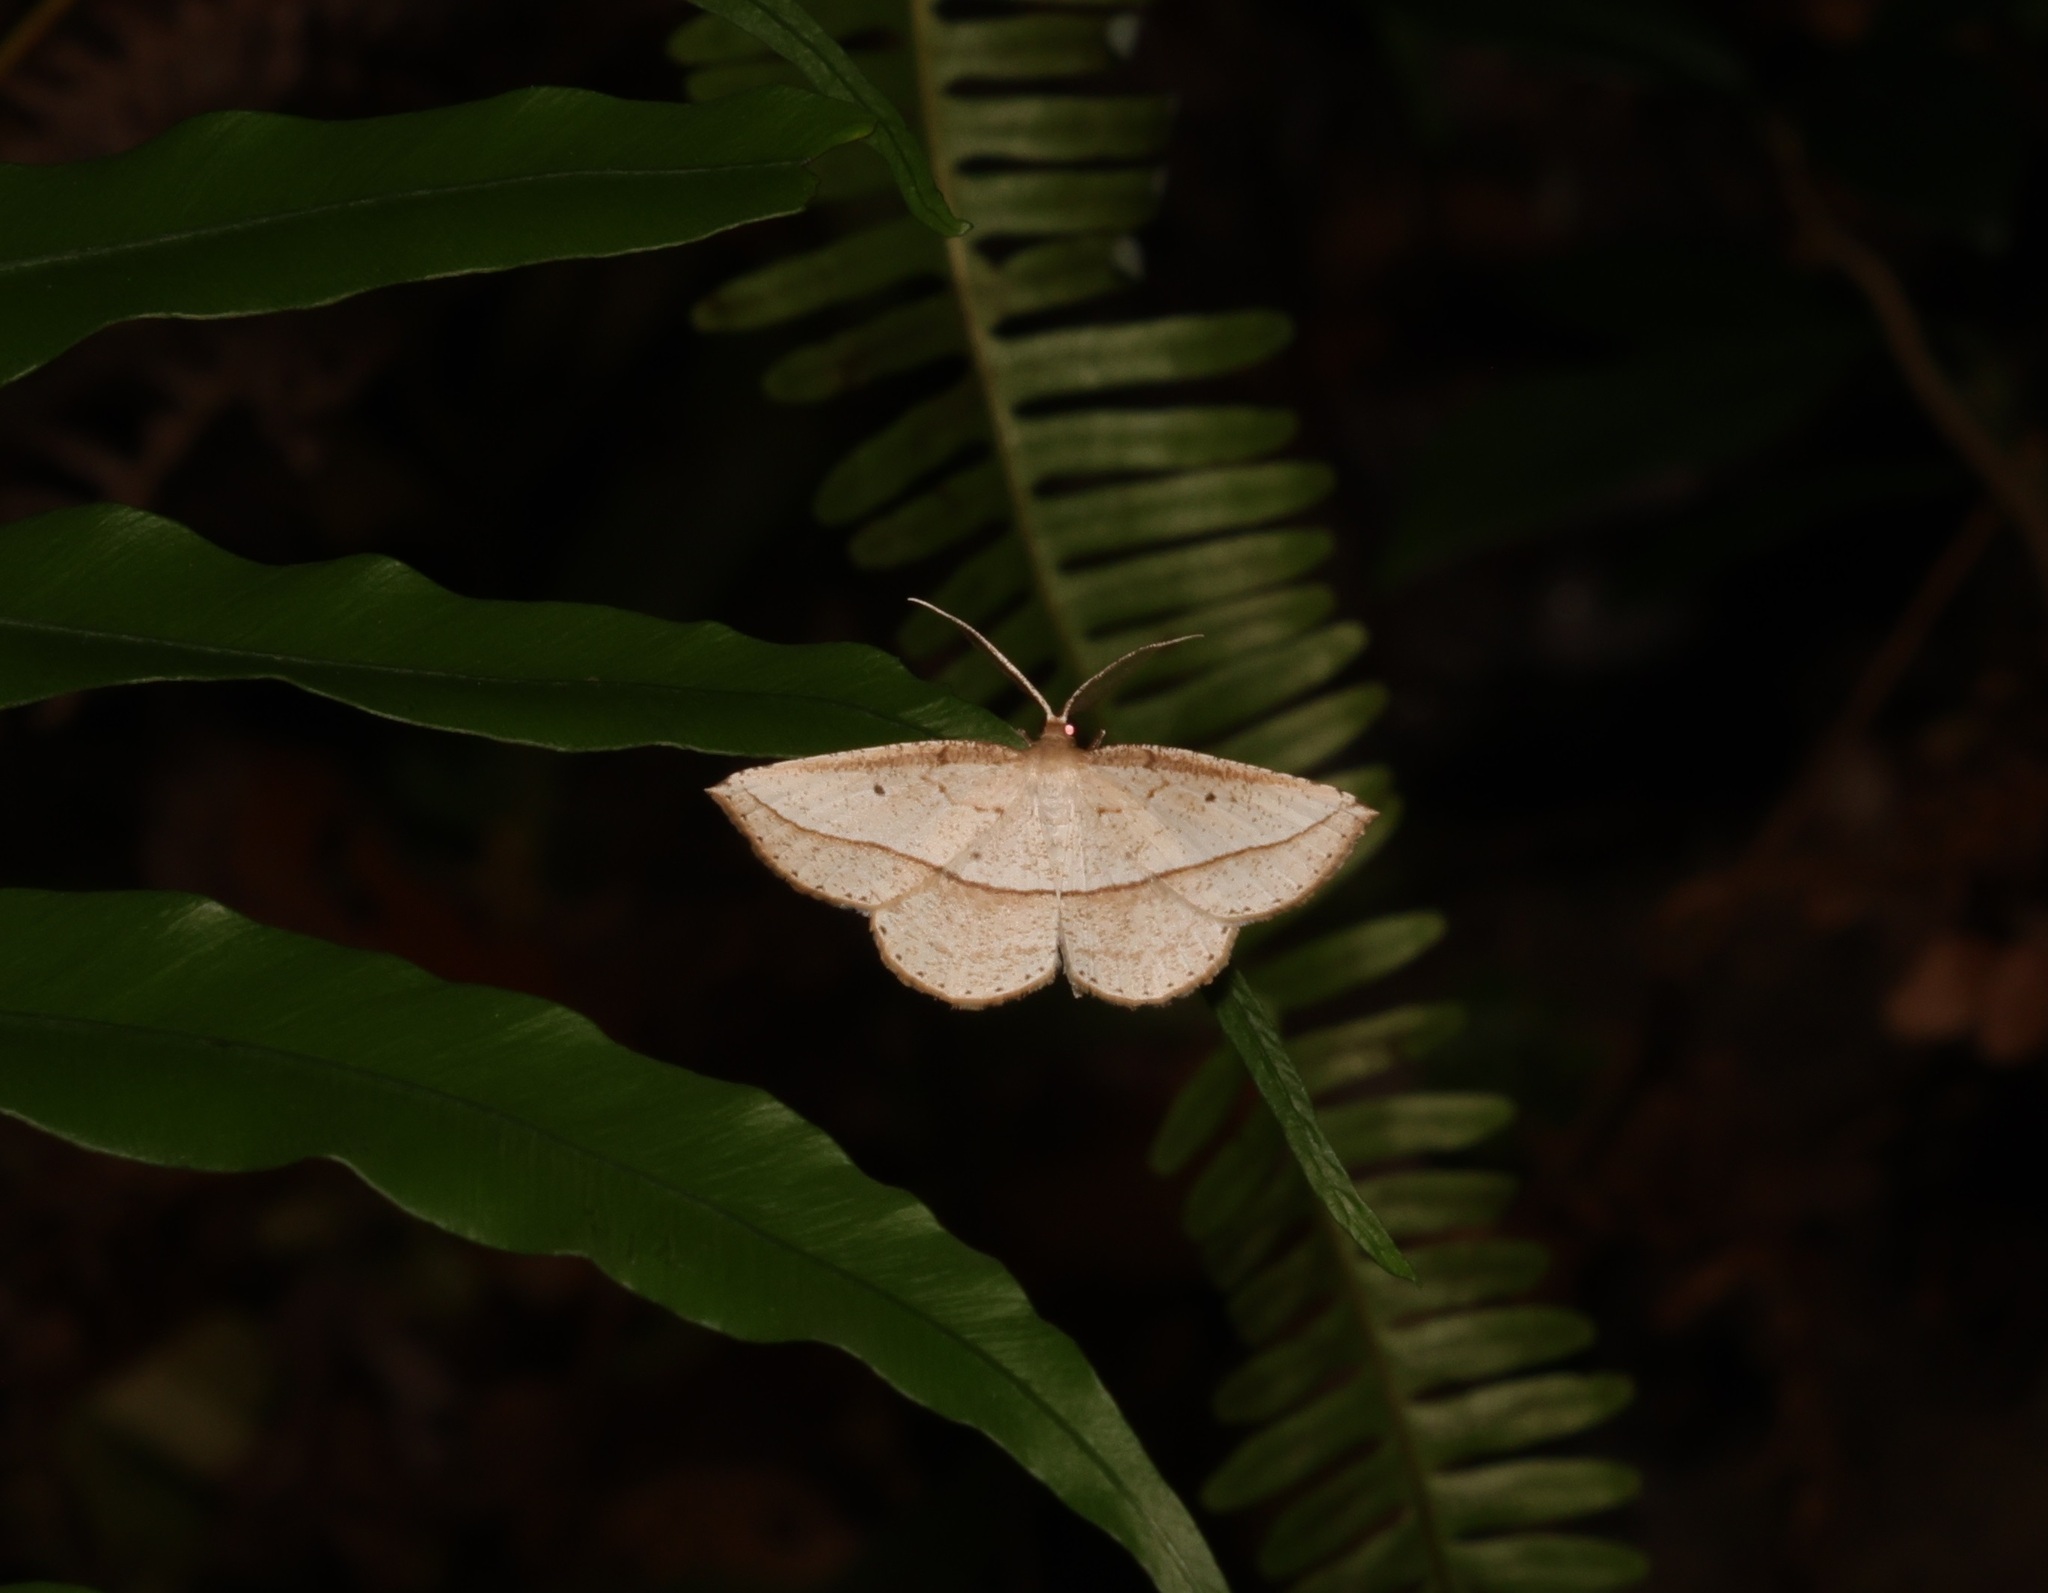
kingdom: Animalia
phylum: Arthropoda
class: Insecta
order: Lepidoptera
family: Geometridae
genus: Heteralex
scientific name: Heteralex unilinea
